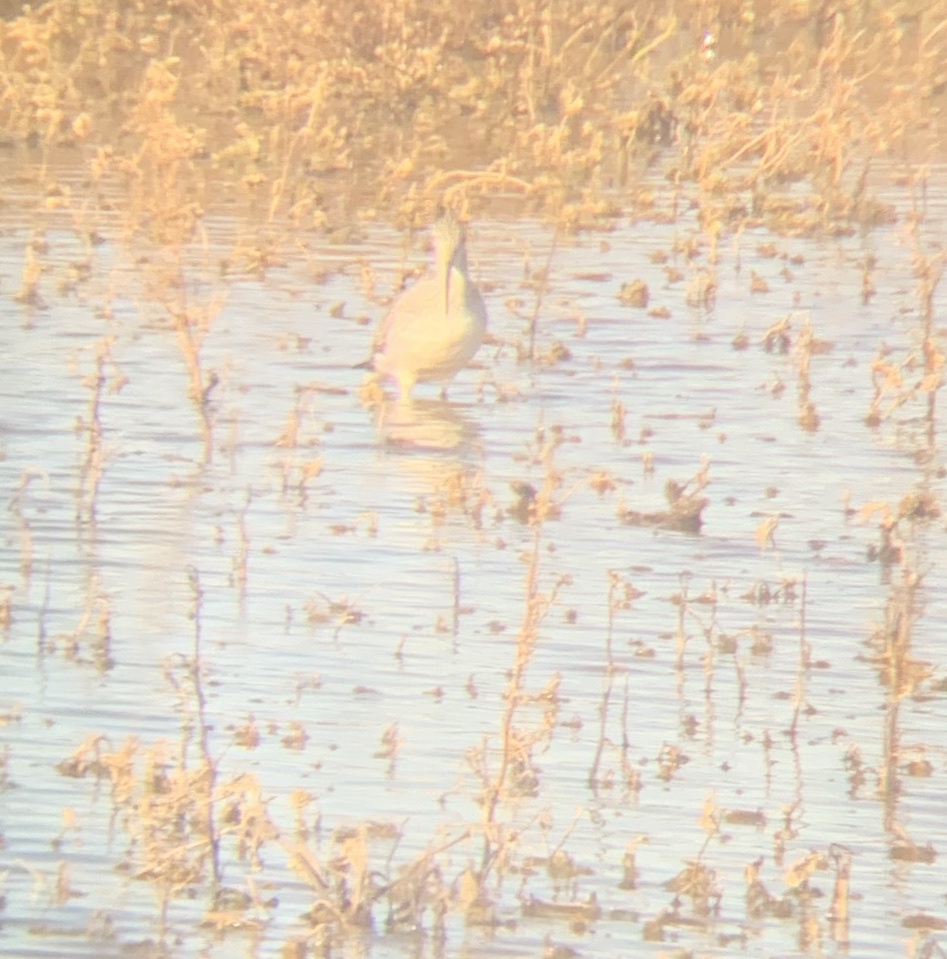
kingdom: Animalia
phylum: Chordata
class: Aves
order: Charadriiformes
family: Scolopacidae
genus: Tringa
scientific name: Tringa melanoleuca
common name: Greater yellowlegs
